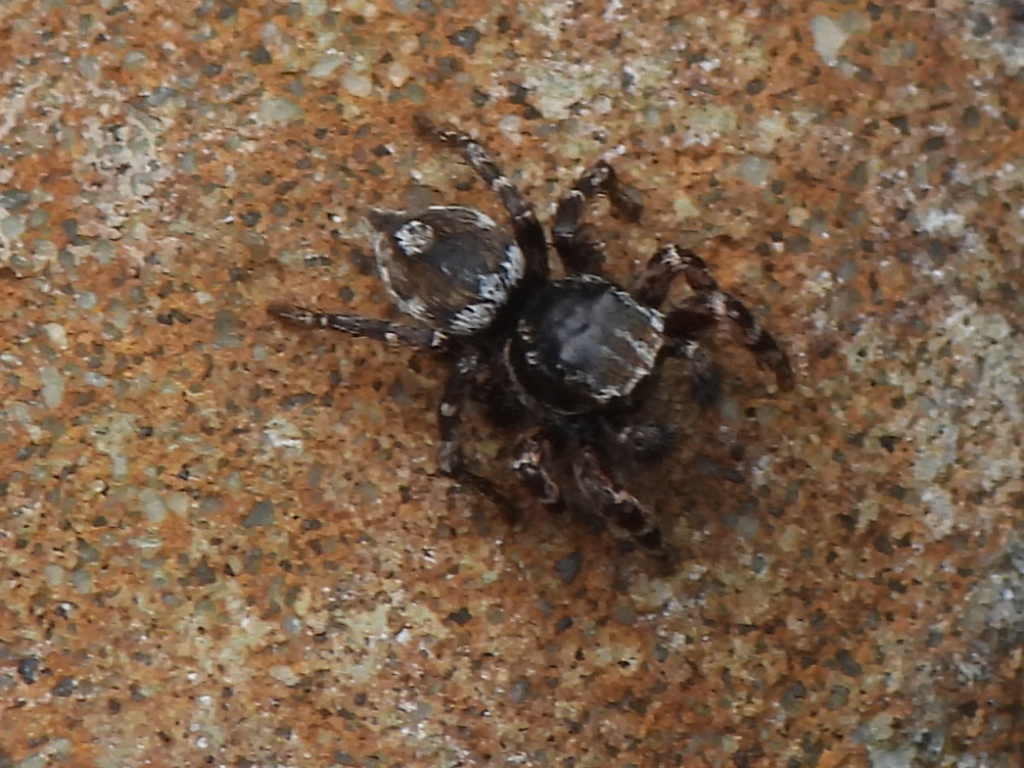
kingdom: Animalia
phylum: Arthropoda
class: Arachnida
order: Araneae
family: Salticidae
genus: Habronattus
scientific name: Habronattus fallax
